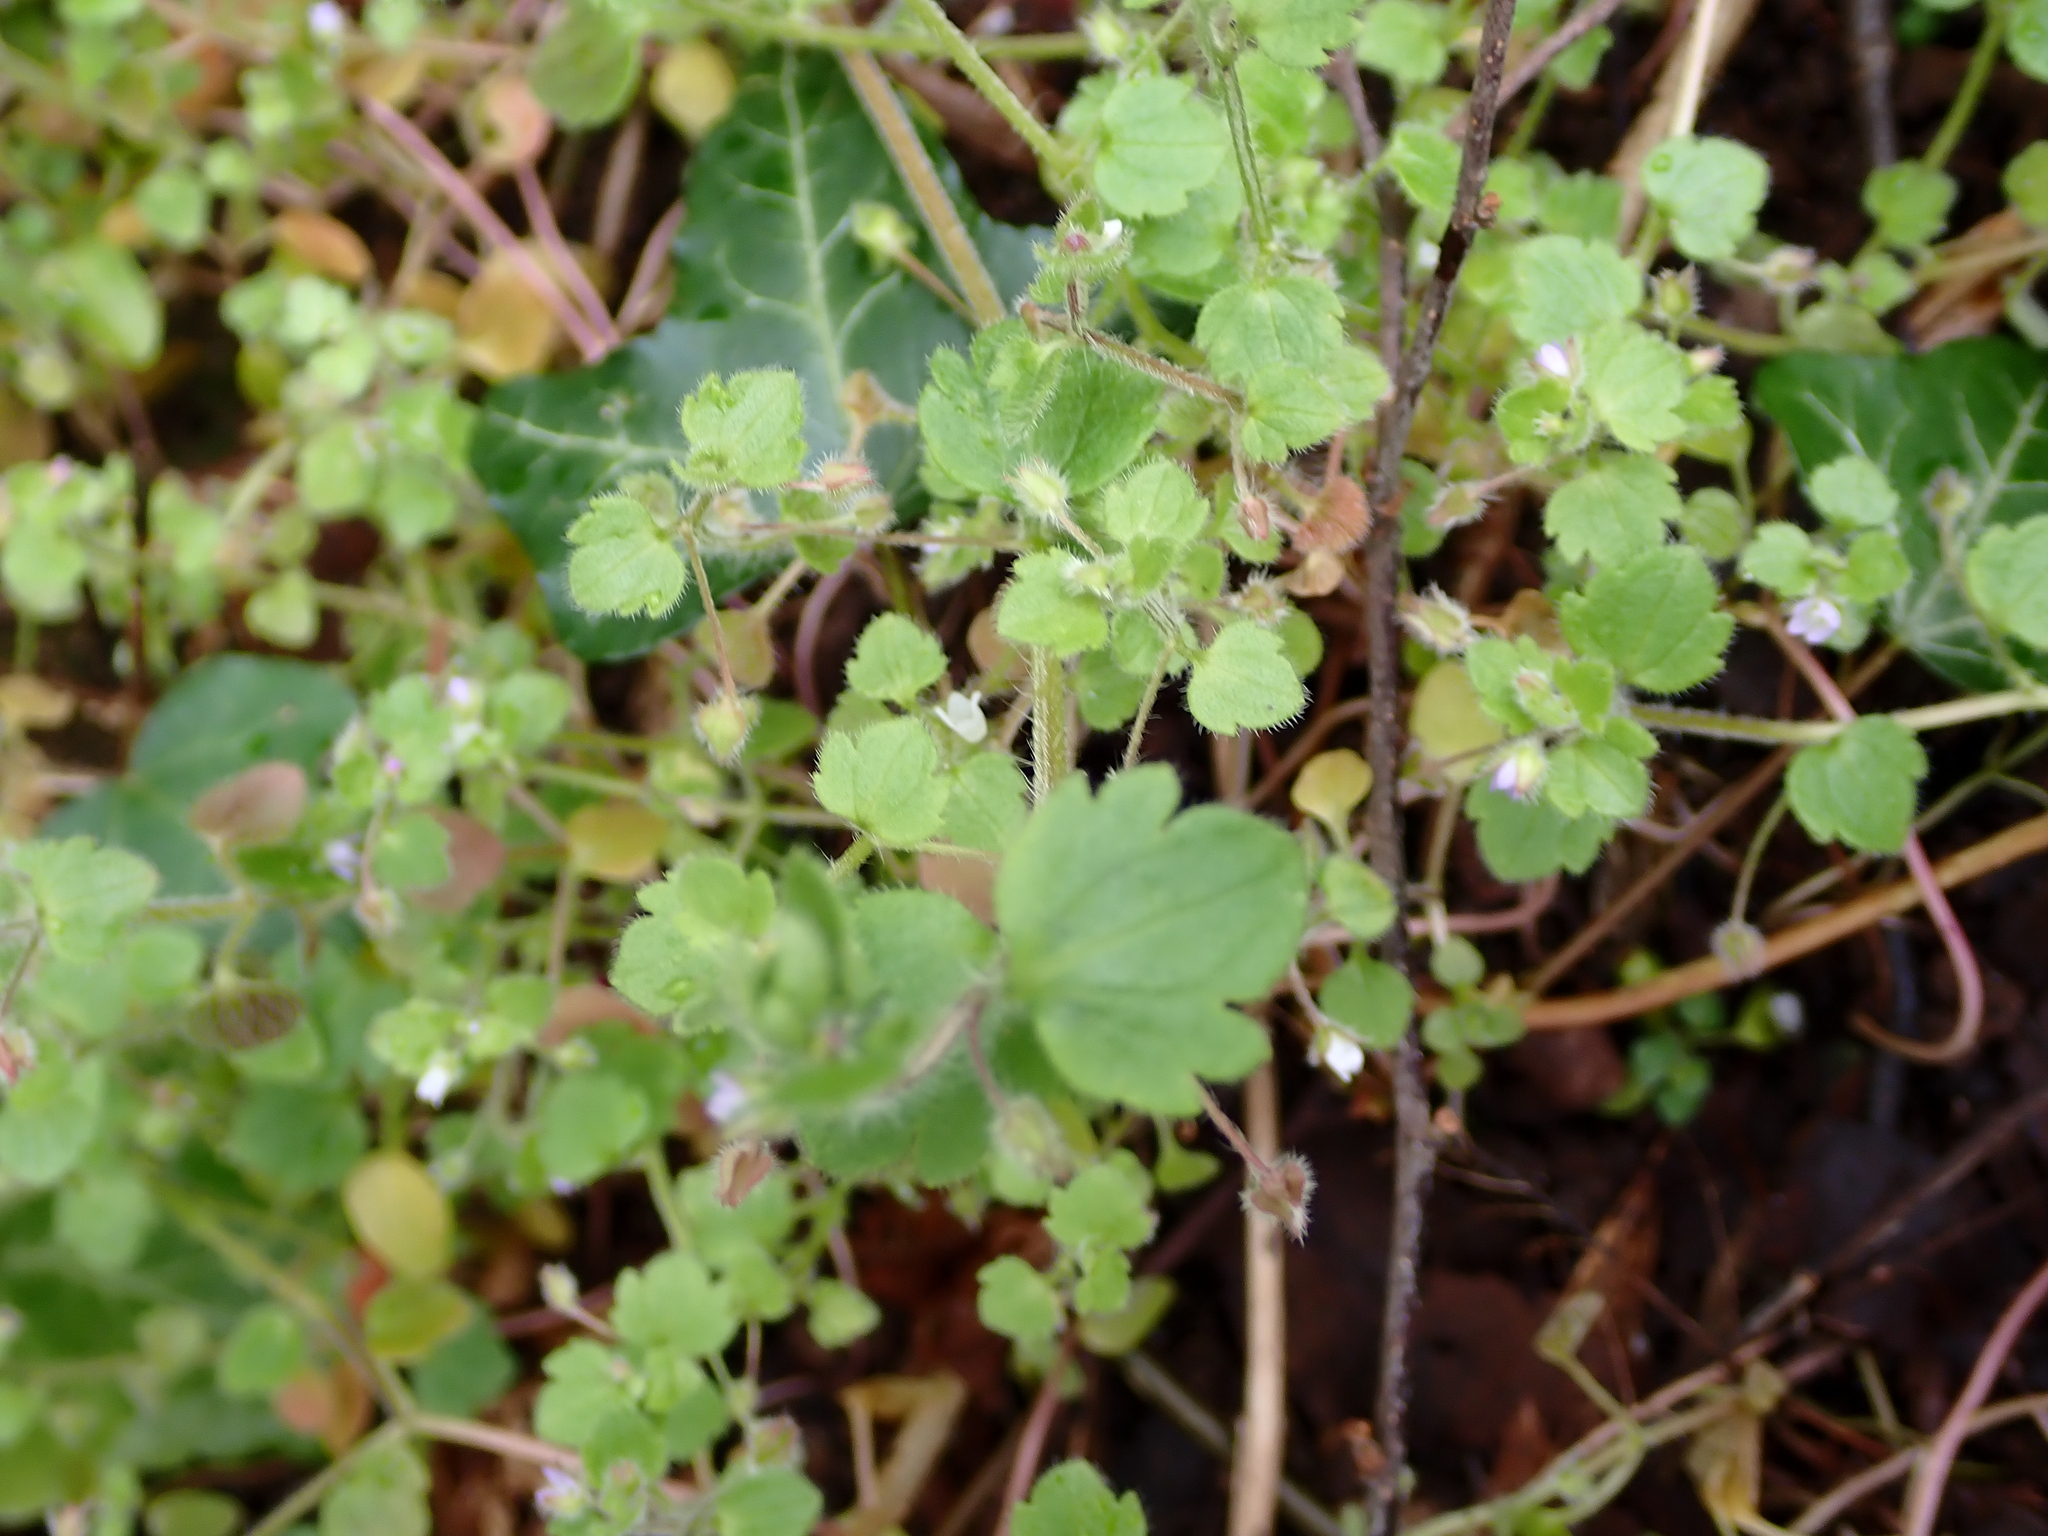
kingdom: Plantae
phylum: Tracheophyta
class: Magnoliopsida
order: Lamiales
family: Plantaginaceae
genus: Veronica
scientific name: Veronica sublobata
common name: False ivy-leaved speedwell
